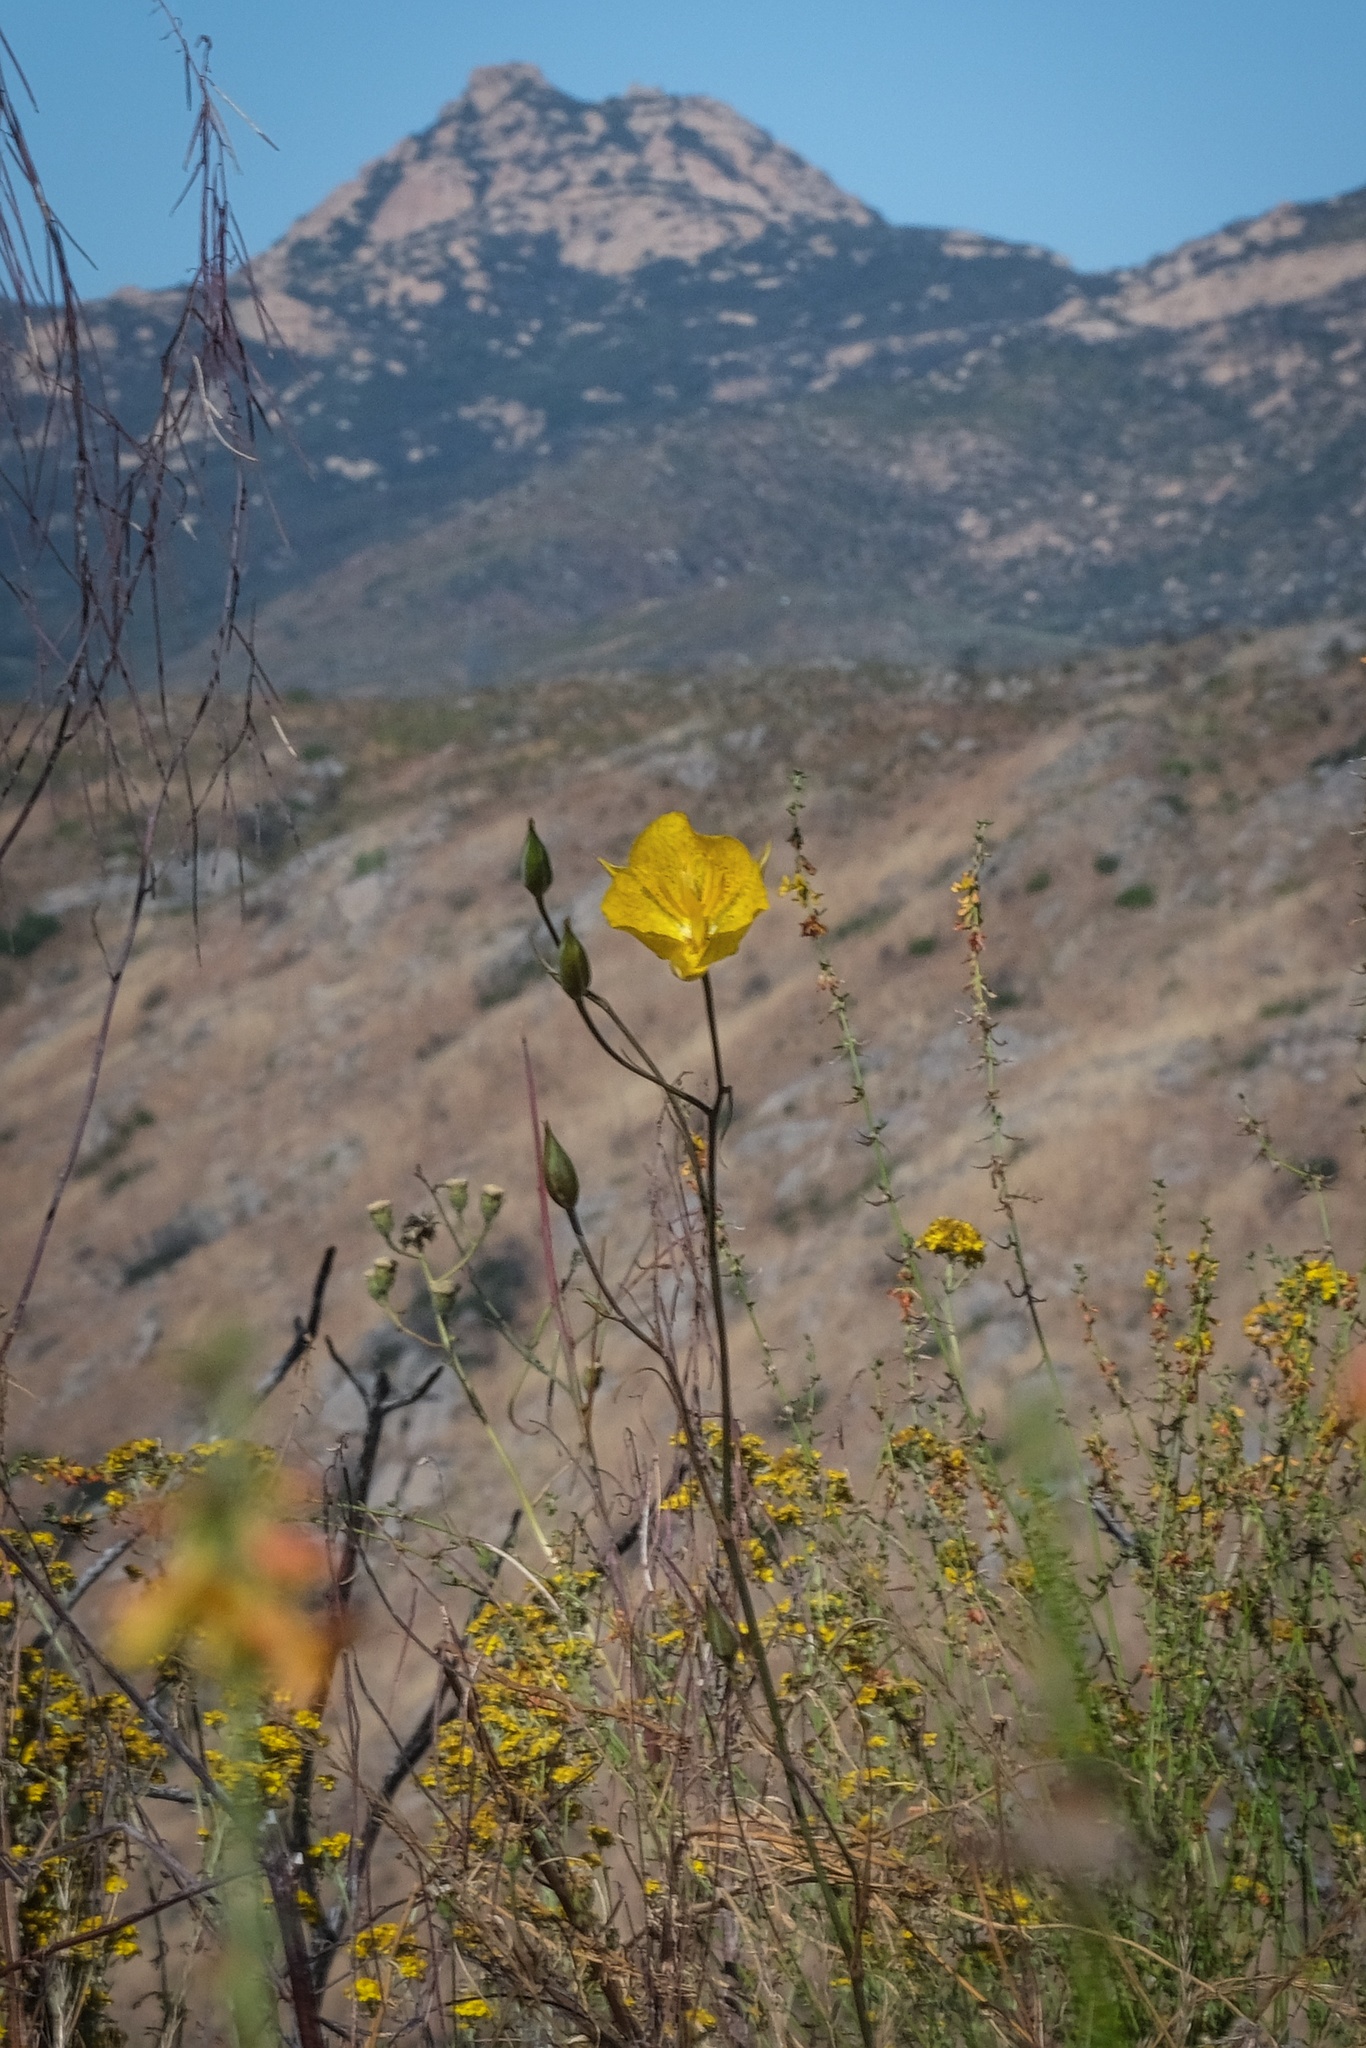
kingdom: Plantae
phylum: Tracheophyta
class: Liliopsida
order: Liliales
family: Liliaceae
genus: Calochortus
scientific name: Calochortus weedii
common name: Weed's mariposa-lily
